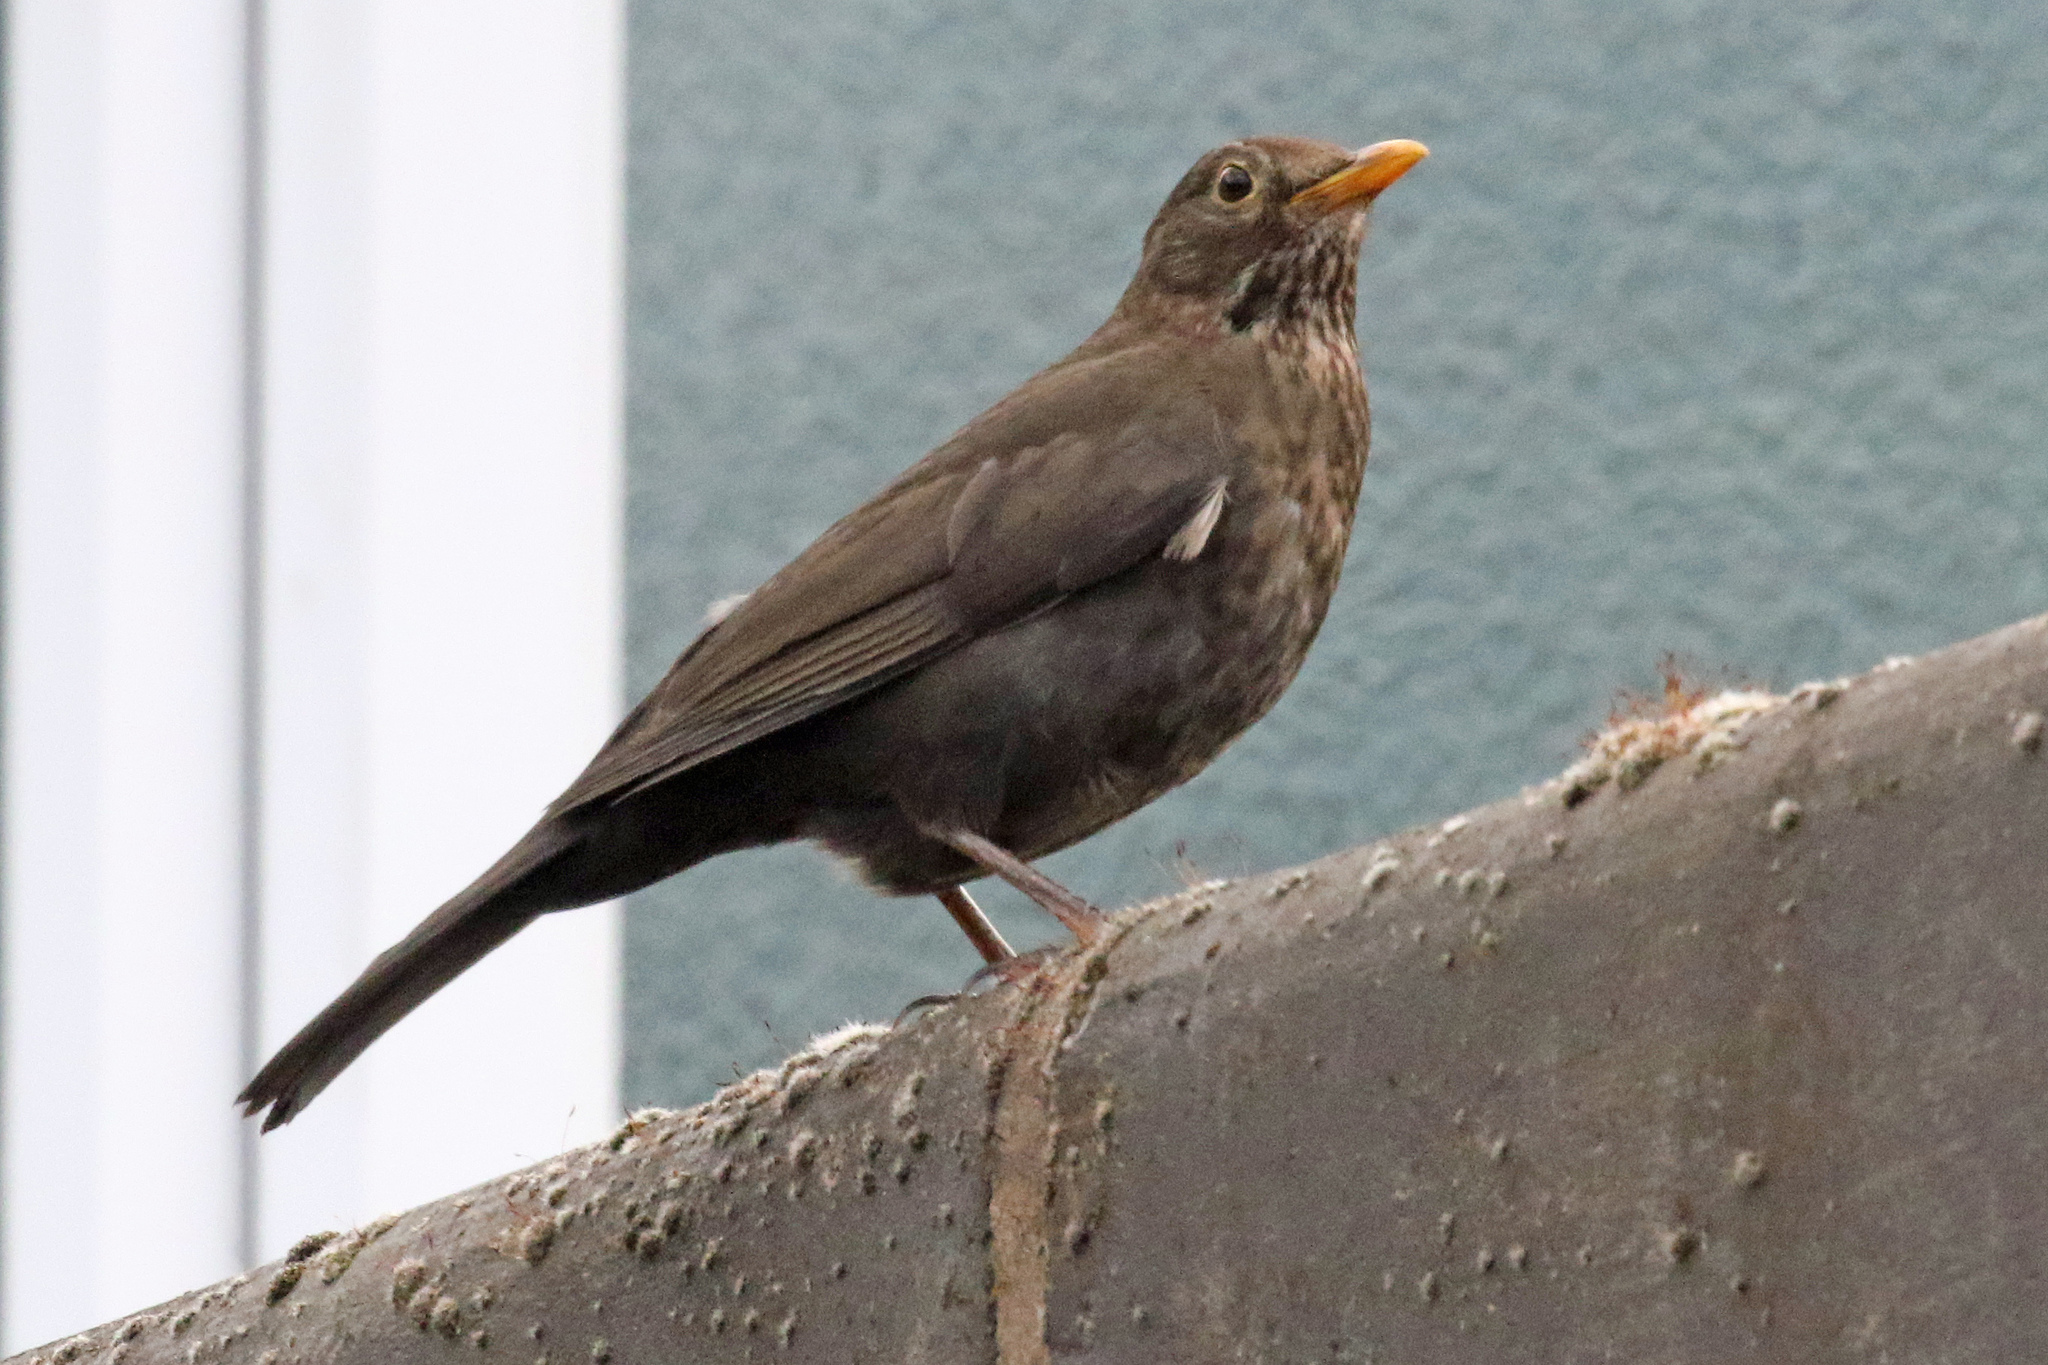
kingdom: Animalia
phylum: Chordata
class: Aves
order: Passeriformes
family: Turdidae
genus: Turdus
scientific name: Turdus merula
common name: Common blackbird
